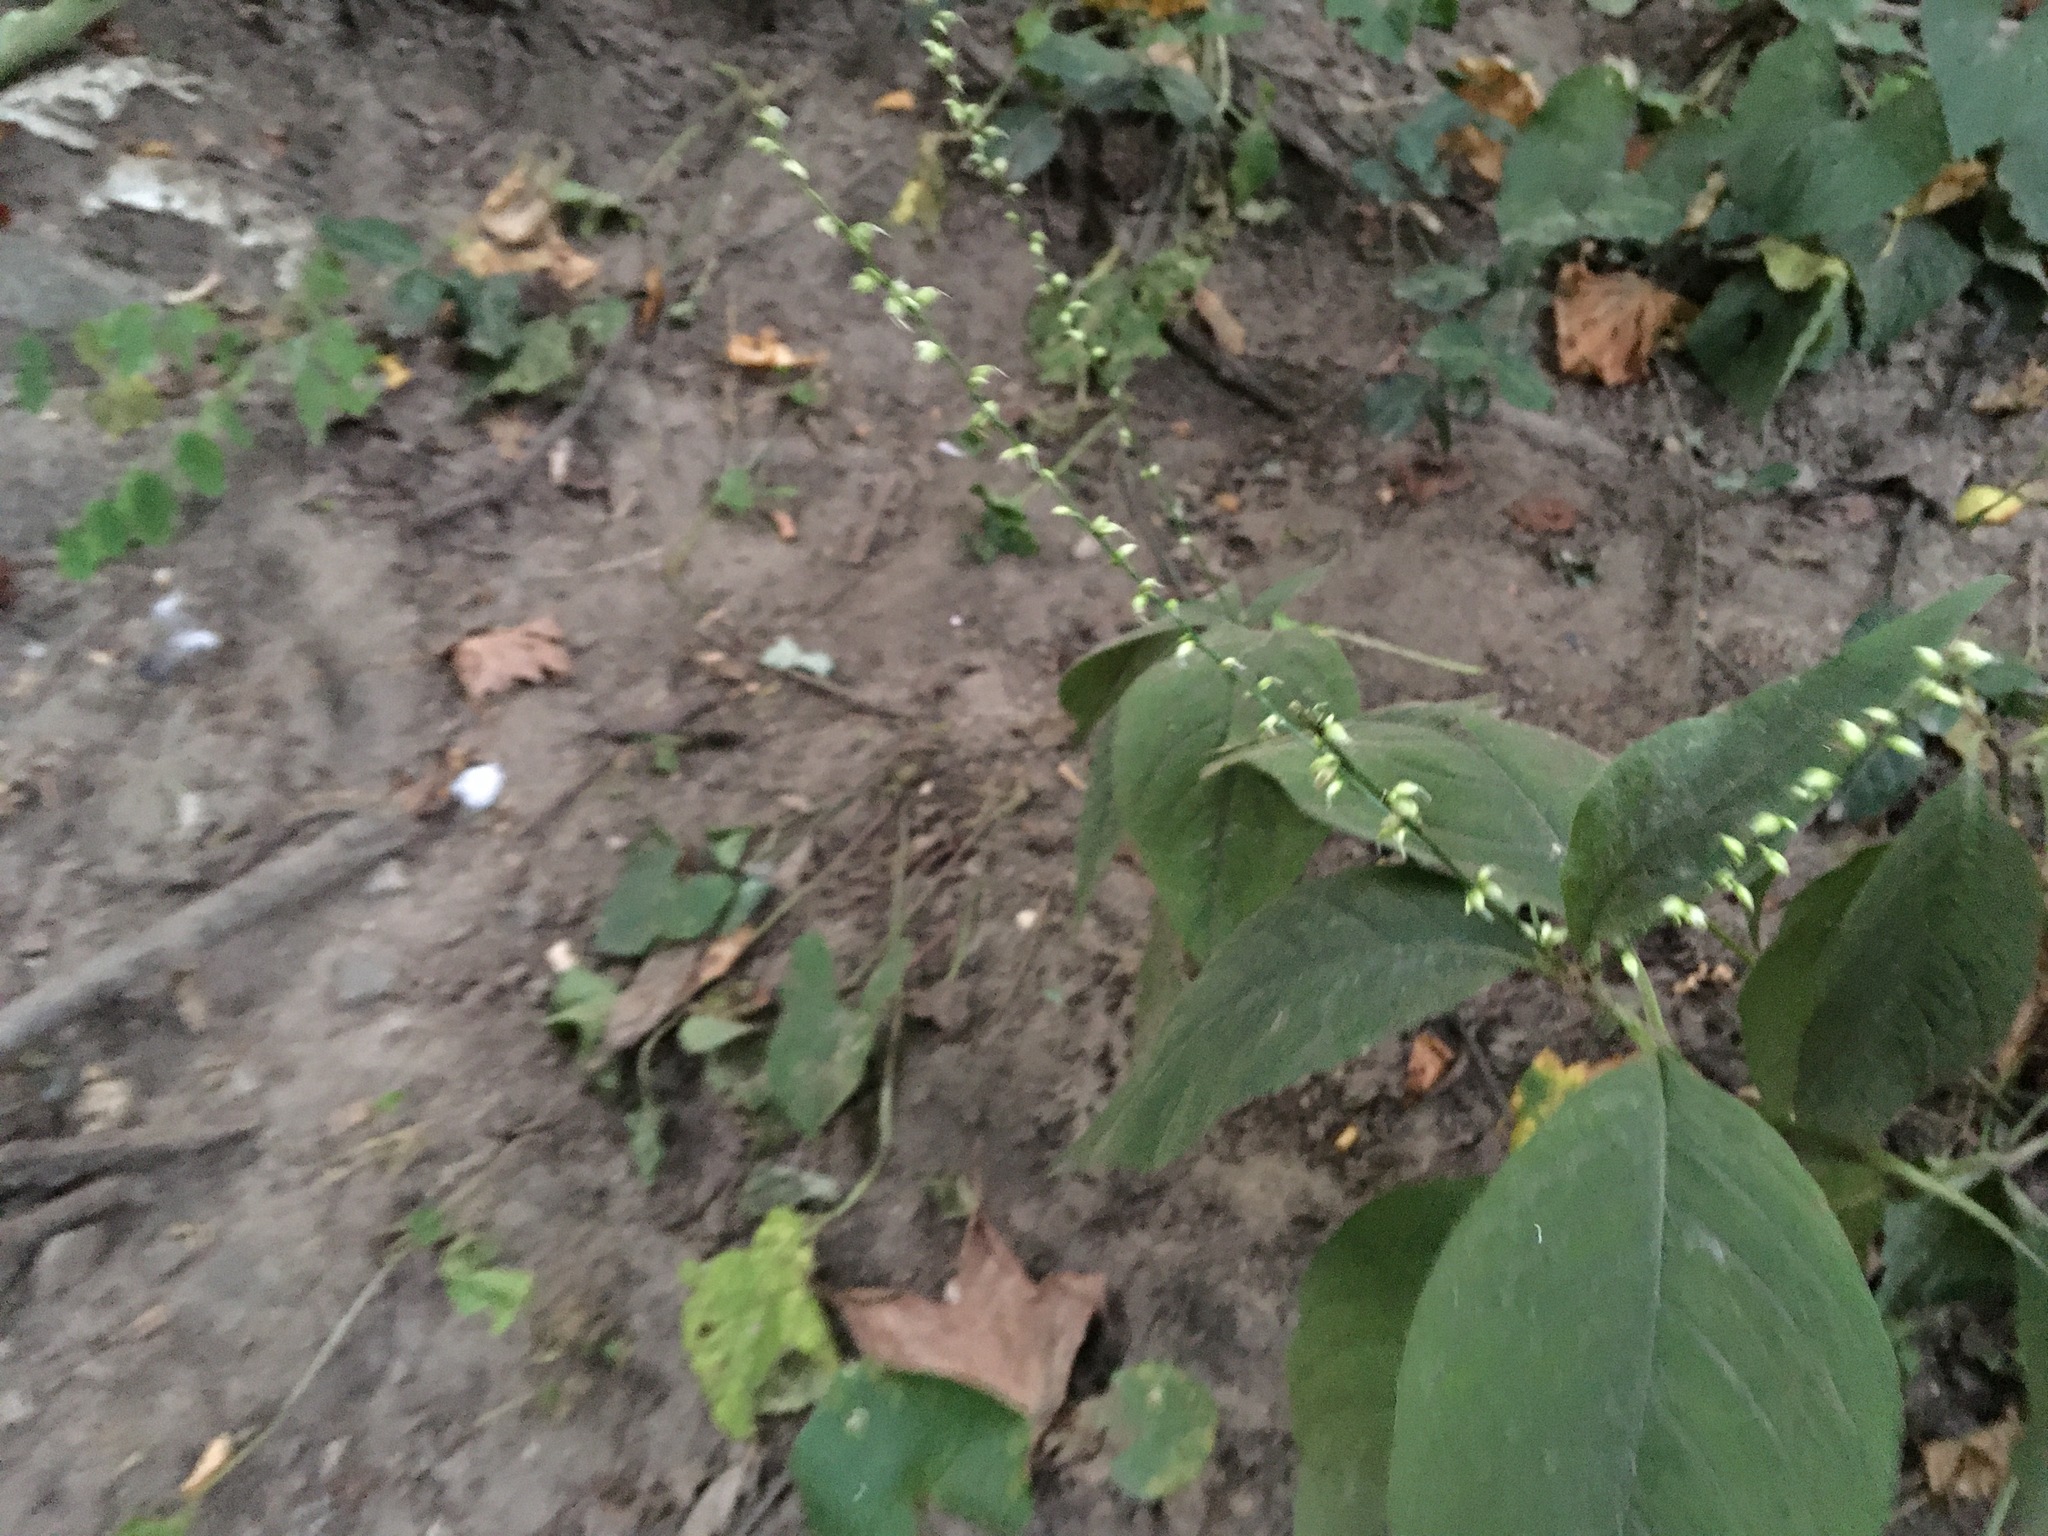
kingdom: Plantae
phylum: Tracheophyta
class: Magnoliopsida
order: Caryophyllales
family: Polygonaceae
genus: Persicaria
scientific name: Persicaria virginiana
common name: Jumpseed
